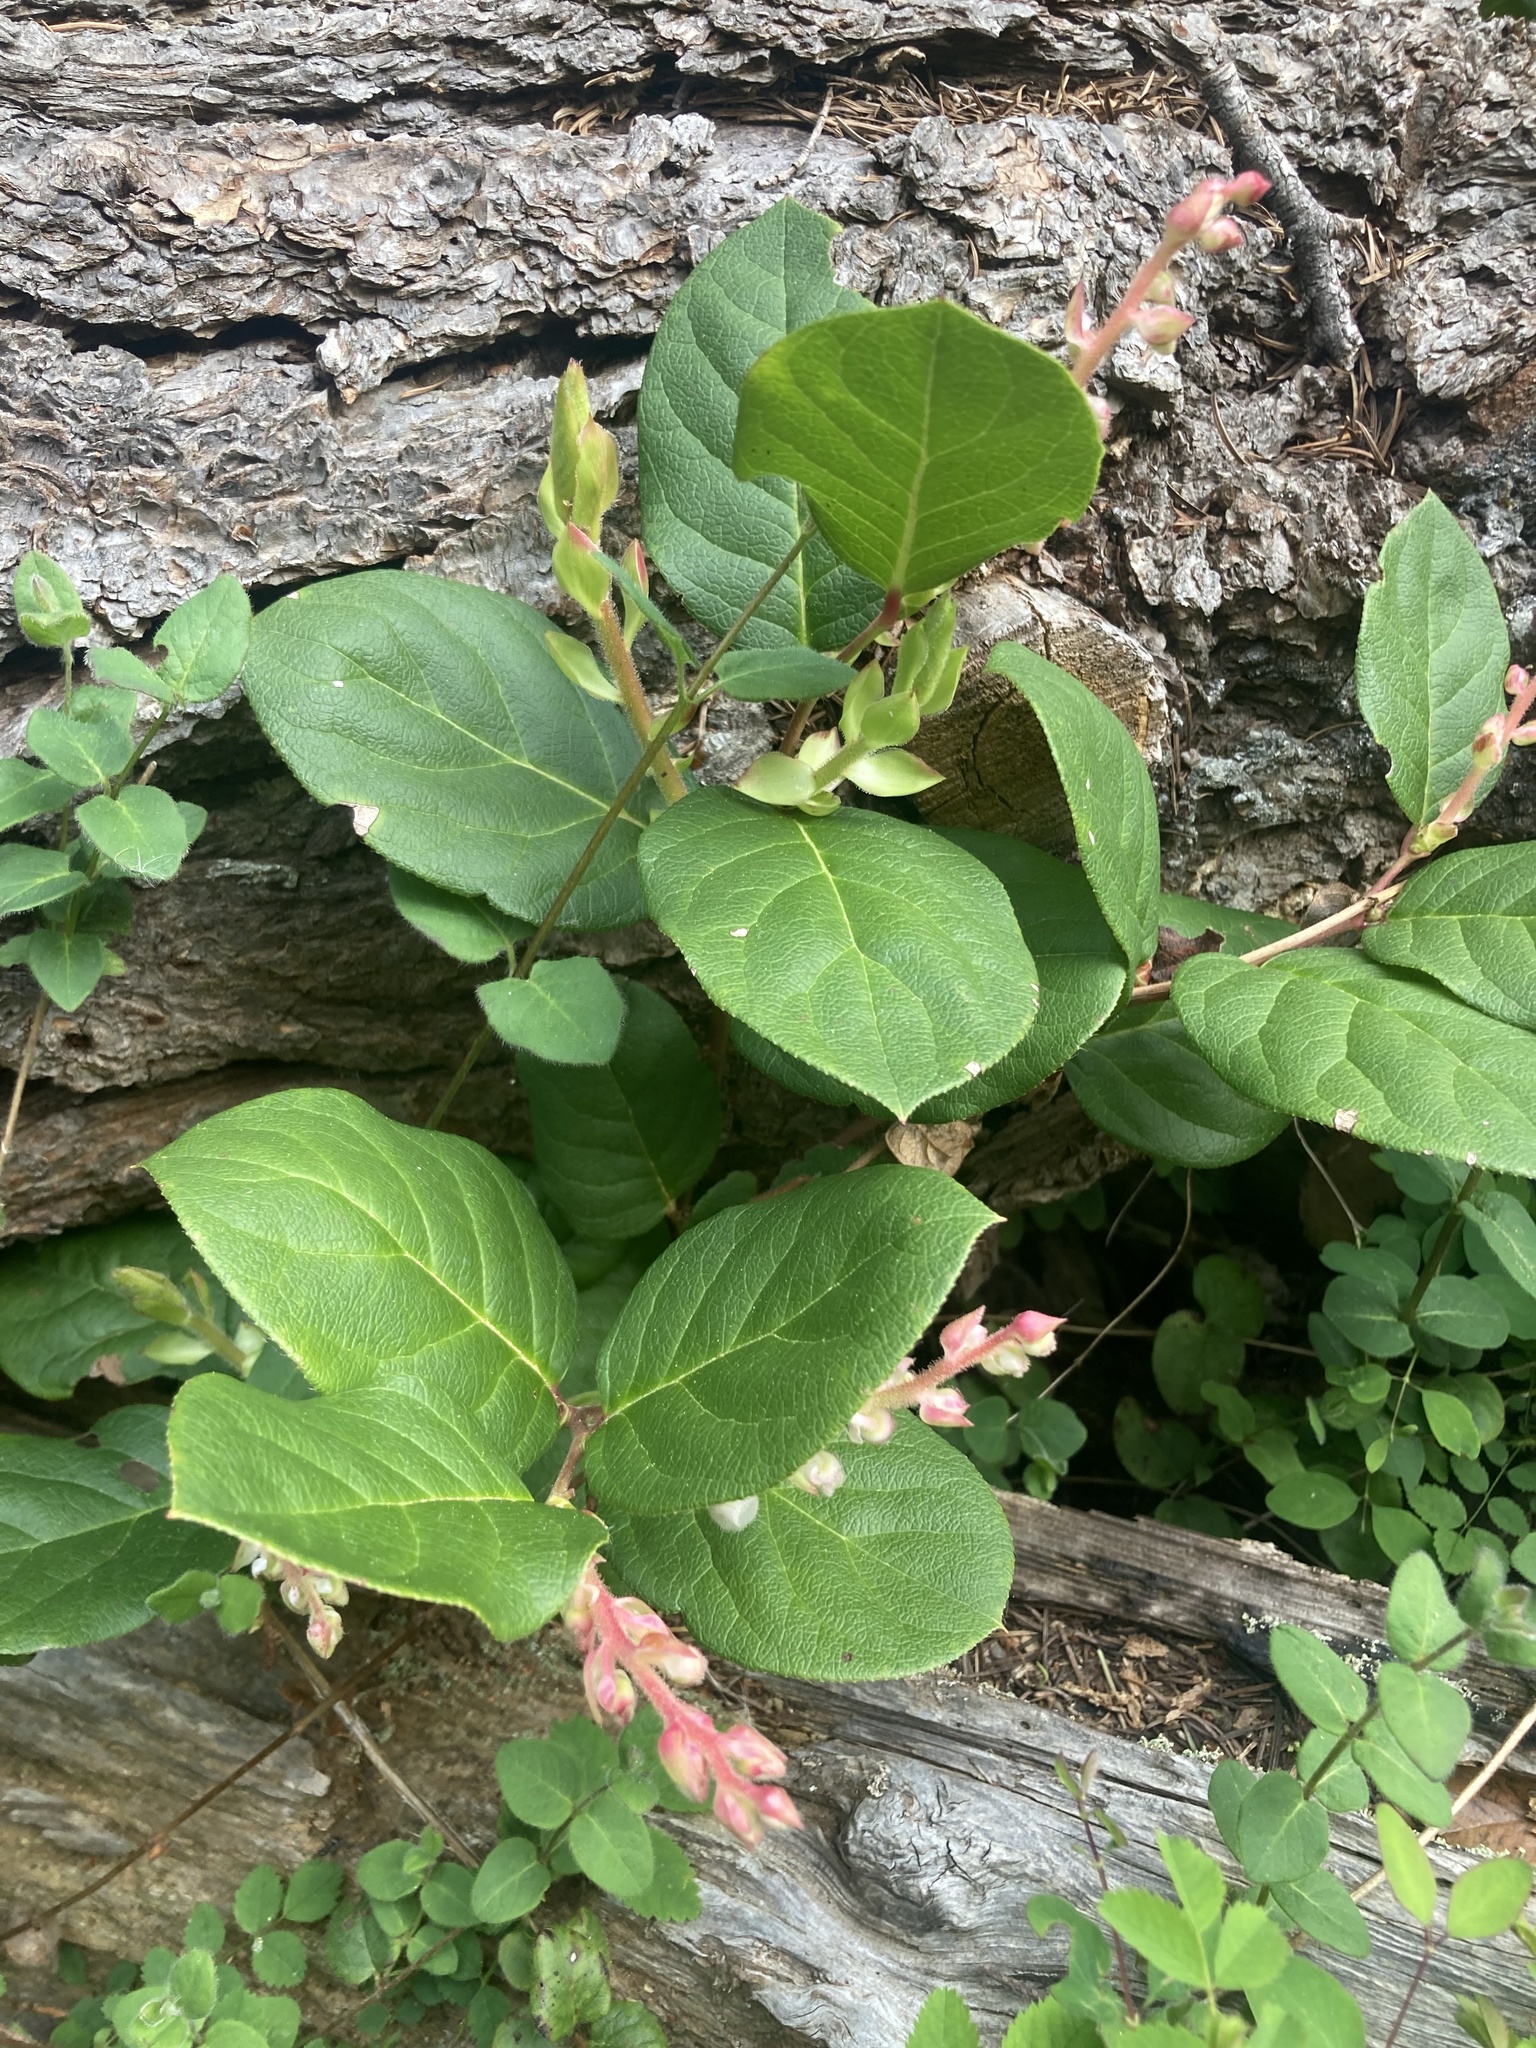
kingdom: Plantae
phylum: Tracheophyta
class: Magnoliopsida
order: Ericales
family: Ericaceae
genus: Gaultheria
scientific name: Gaultheria shallon
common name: Shallon
